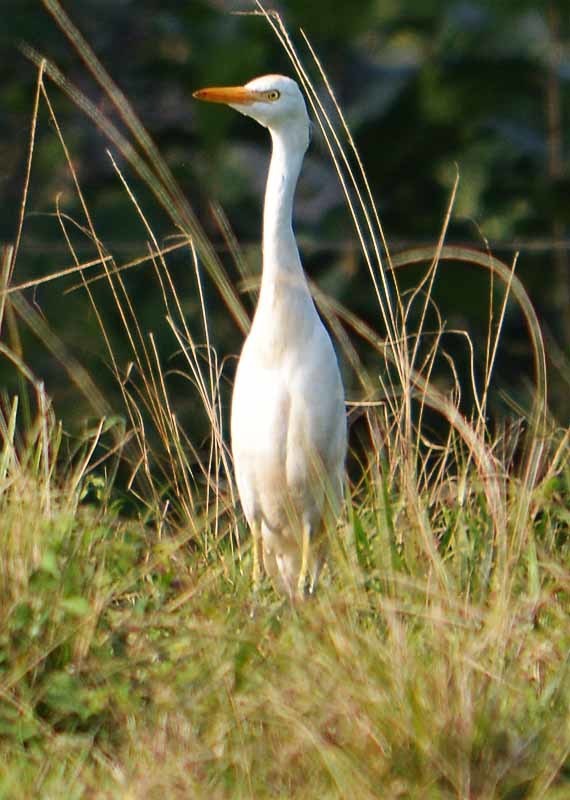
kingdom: Animalia
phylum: Chordata
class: Aves
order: Pelecaniformes
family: Ardeidae
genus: Bubulcus
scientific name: Bubulcus ibis
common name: Cattle egret
